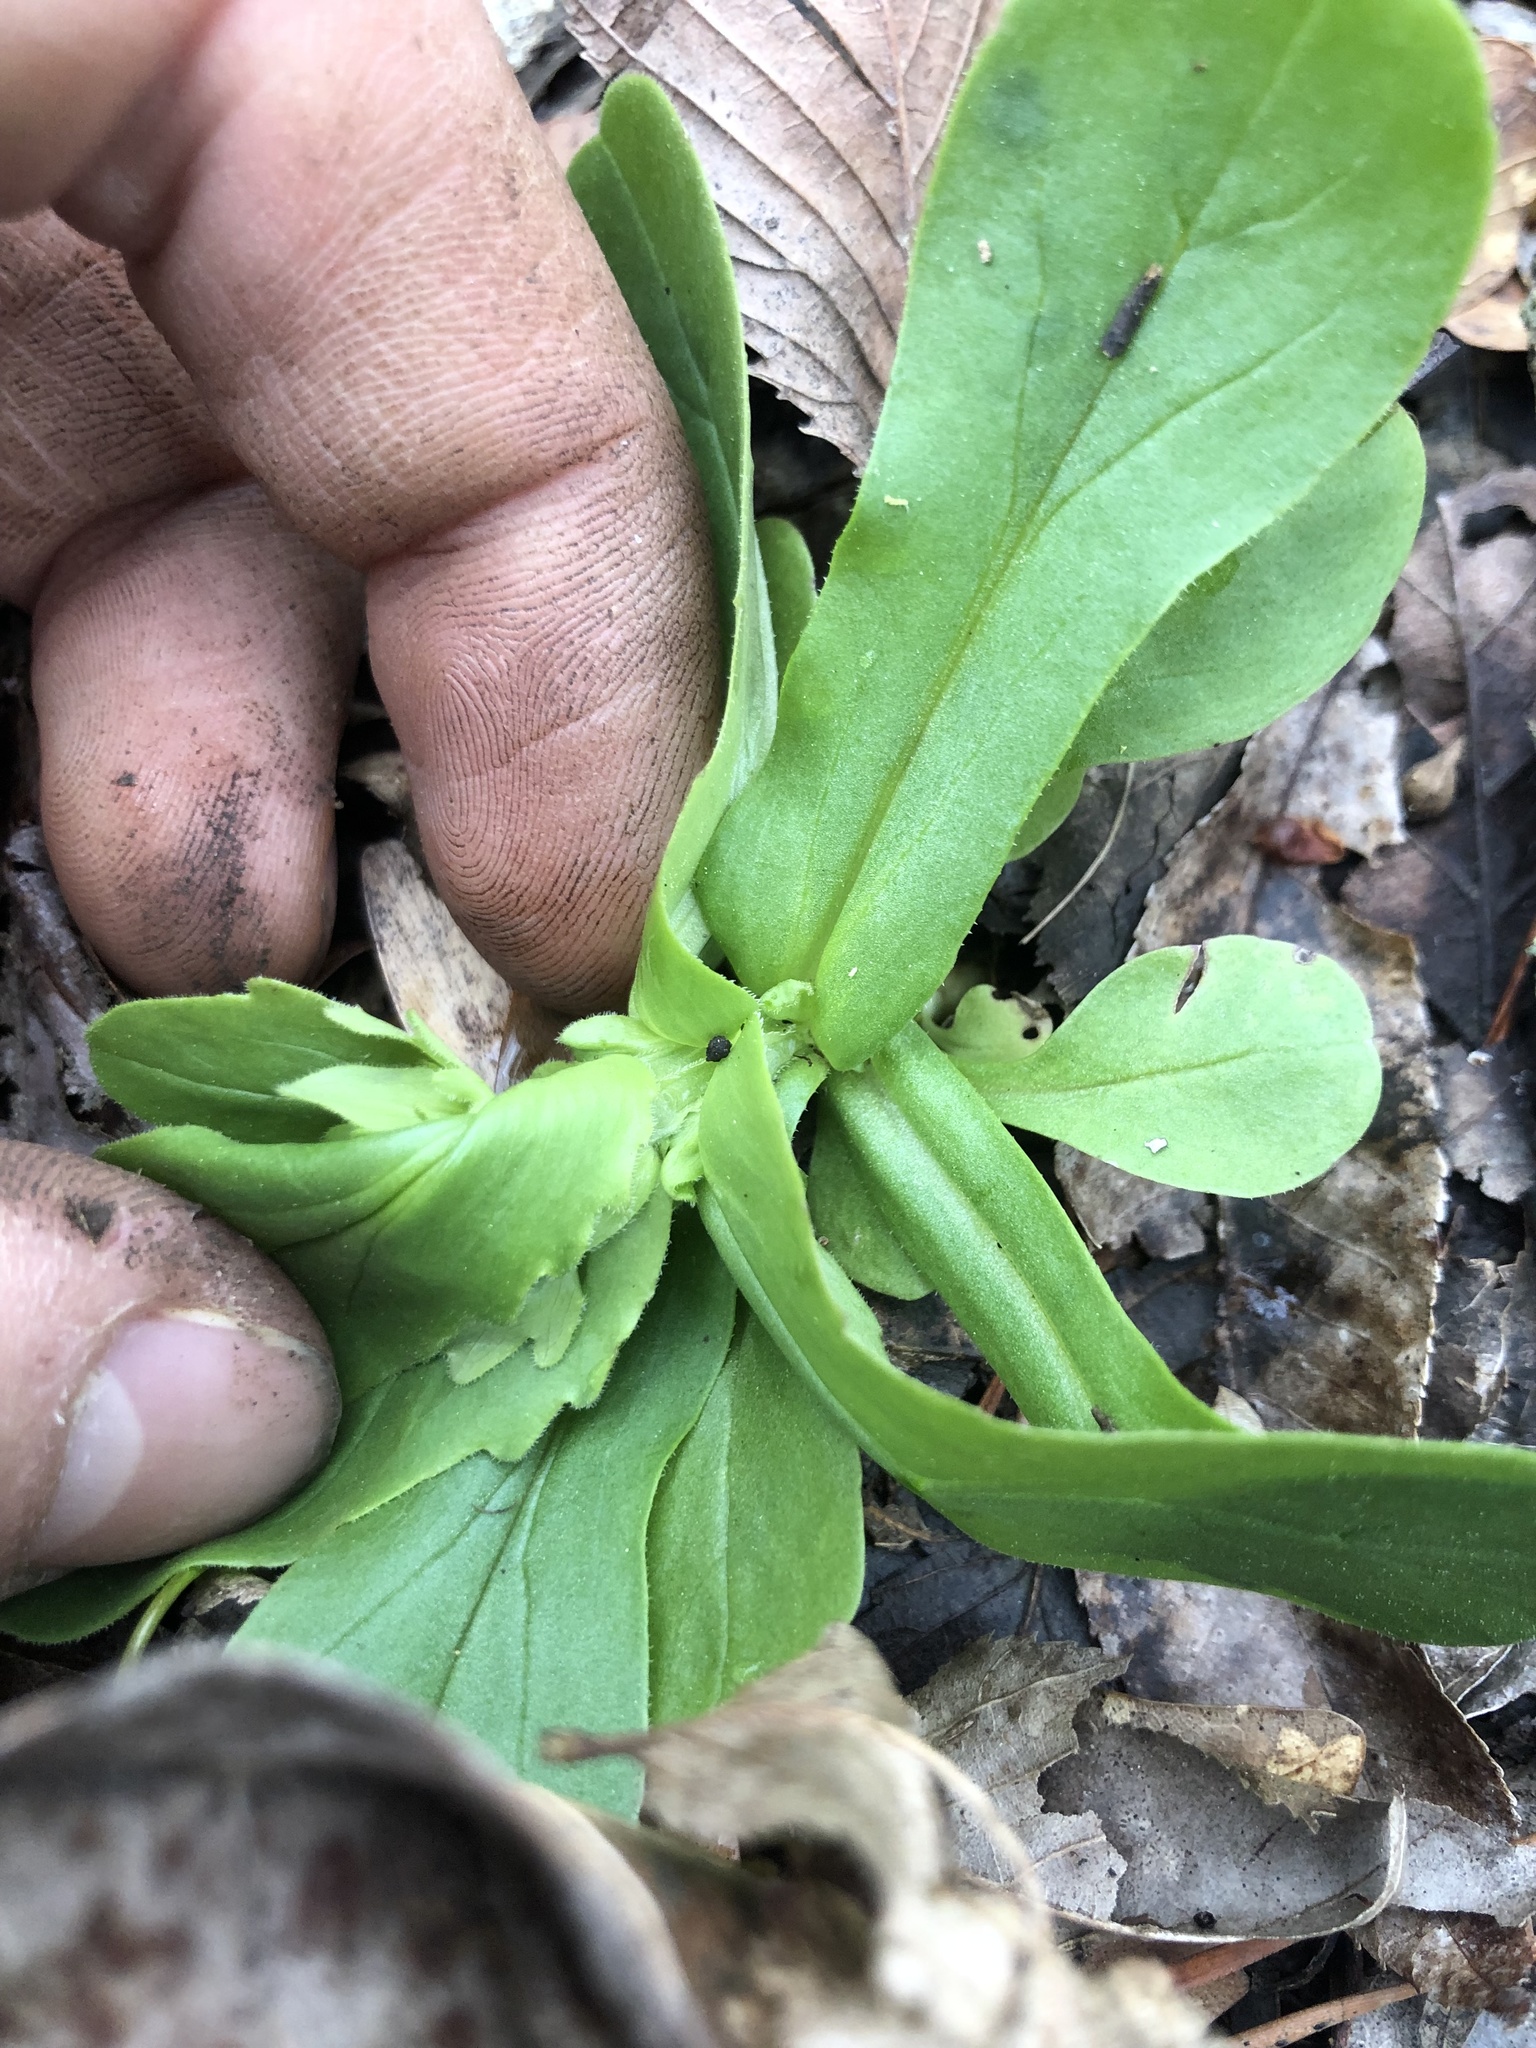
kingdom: Plantae
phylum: Tracheophyta
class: Magnoliopsida
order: Dipsacales
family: Caprifoliaceae
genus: Valerianella
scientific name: Valerianella radiata
